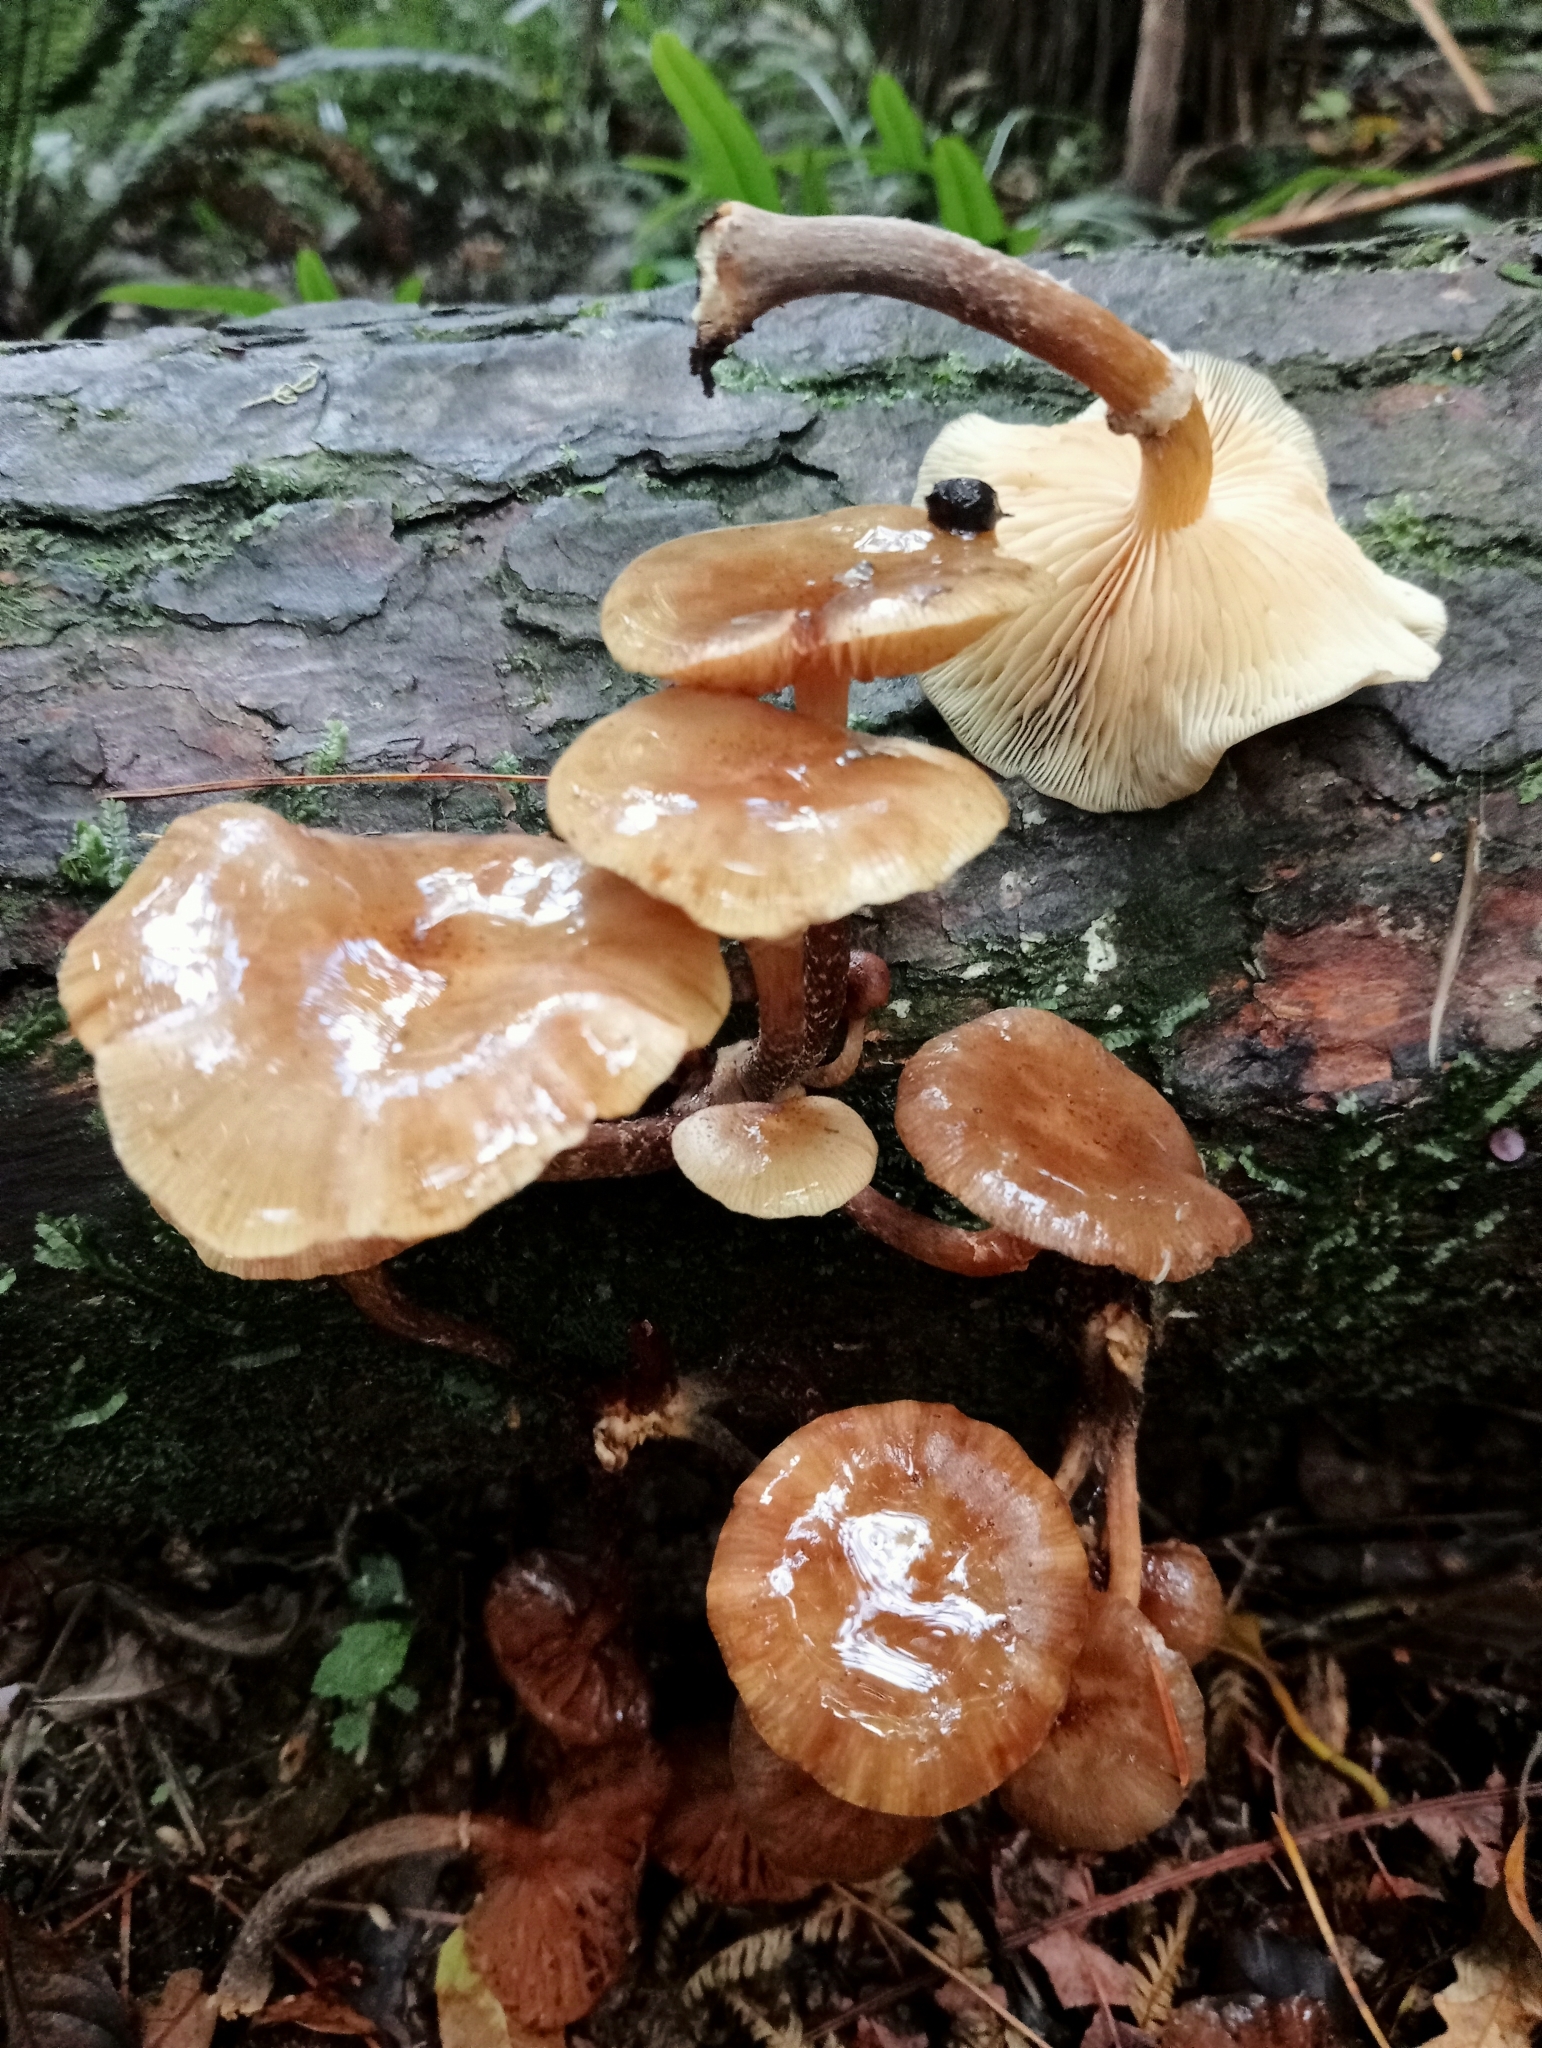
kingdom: Fungi
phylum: Basidiomycota
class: Agaricomycetes
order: Agaricales
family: Physalacriaceae
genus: Armillaria
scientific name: Armillaria novae-zelandiae
